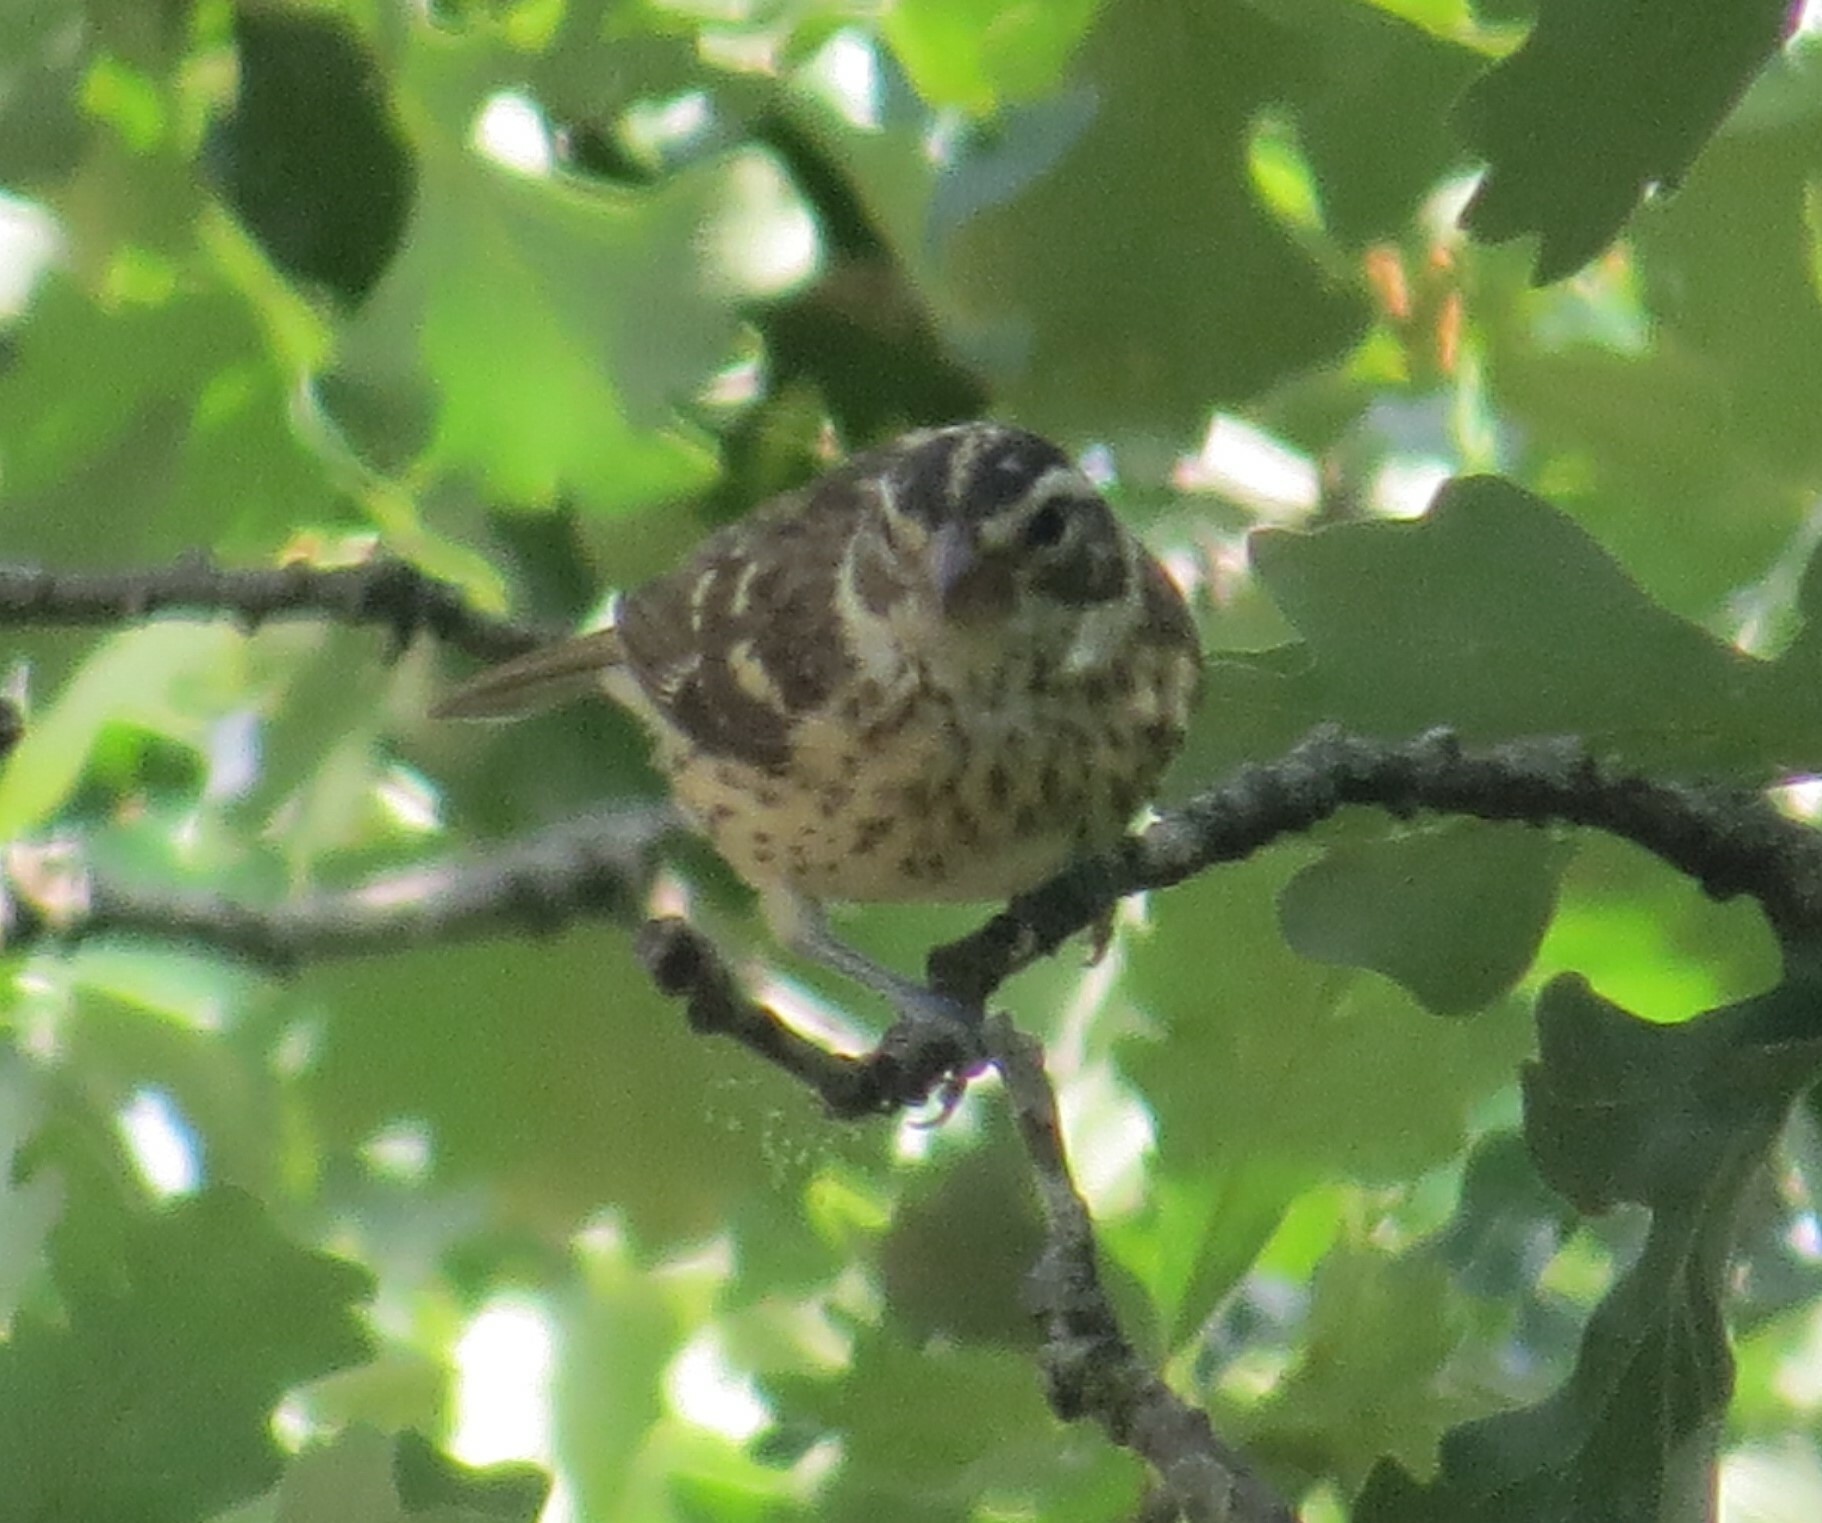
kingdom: Animalia
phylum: Chordata
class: Aves
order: Passeriformes
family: Cardinalidae
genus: Pheucticus
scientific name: Pheucticus ludovicianus
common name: Rose-breasted grosbeak
